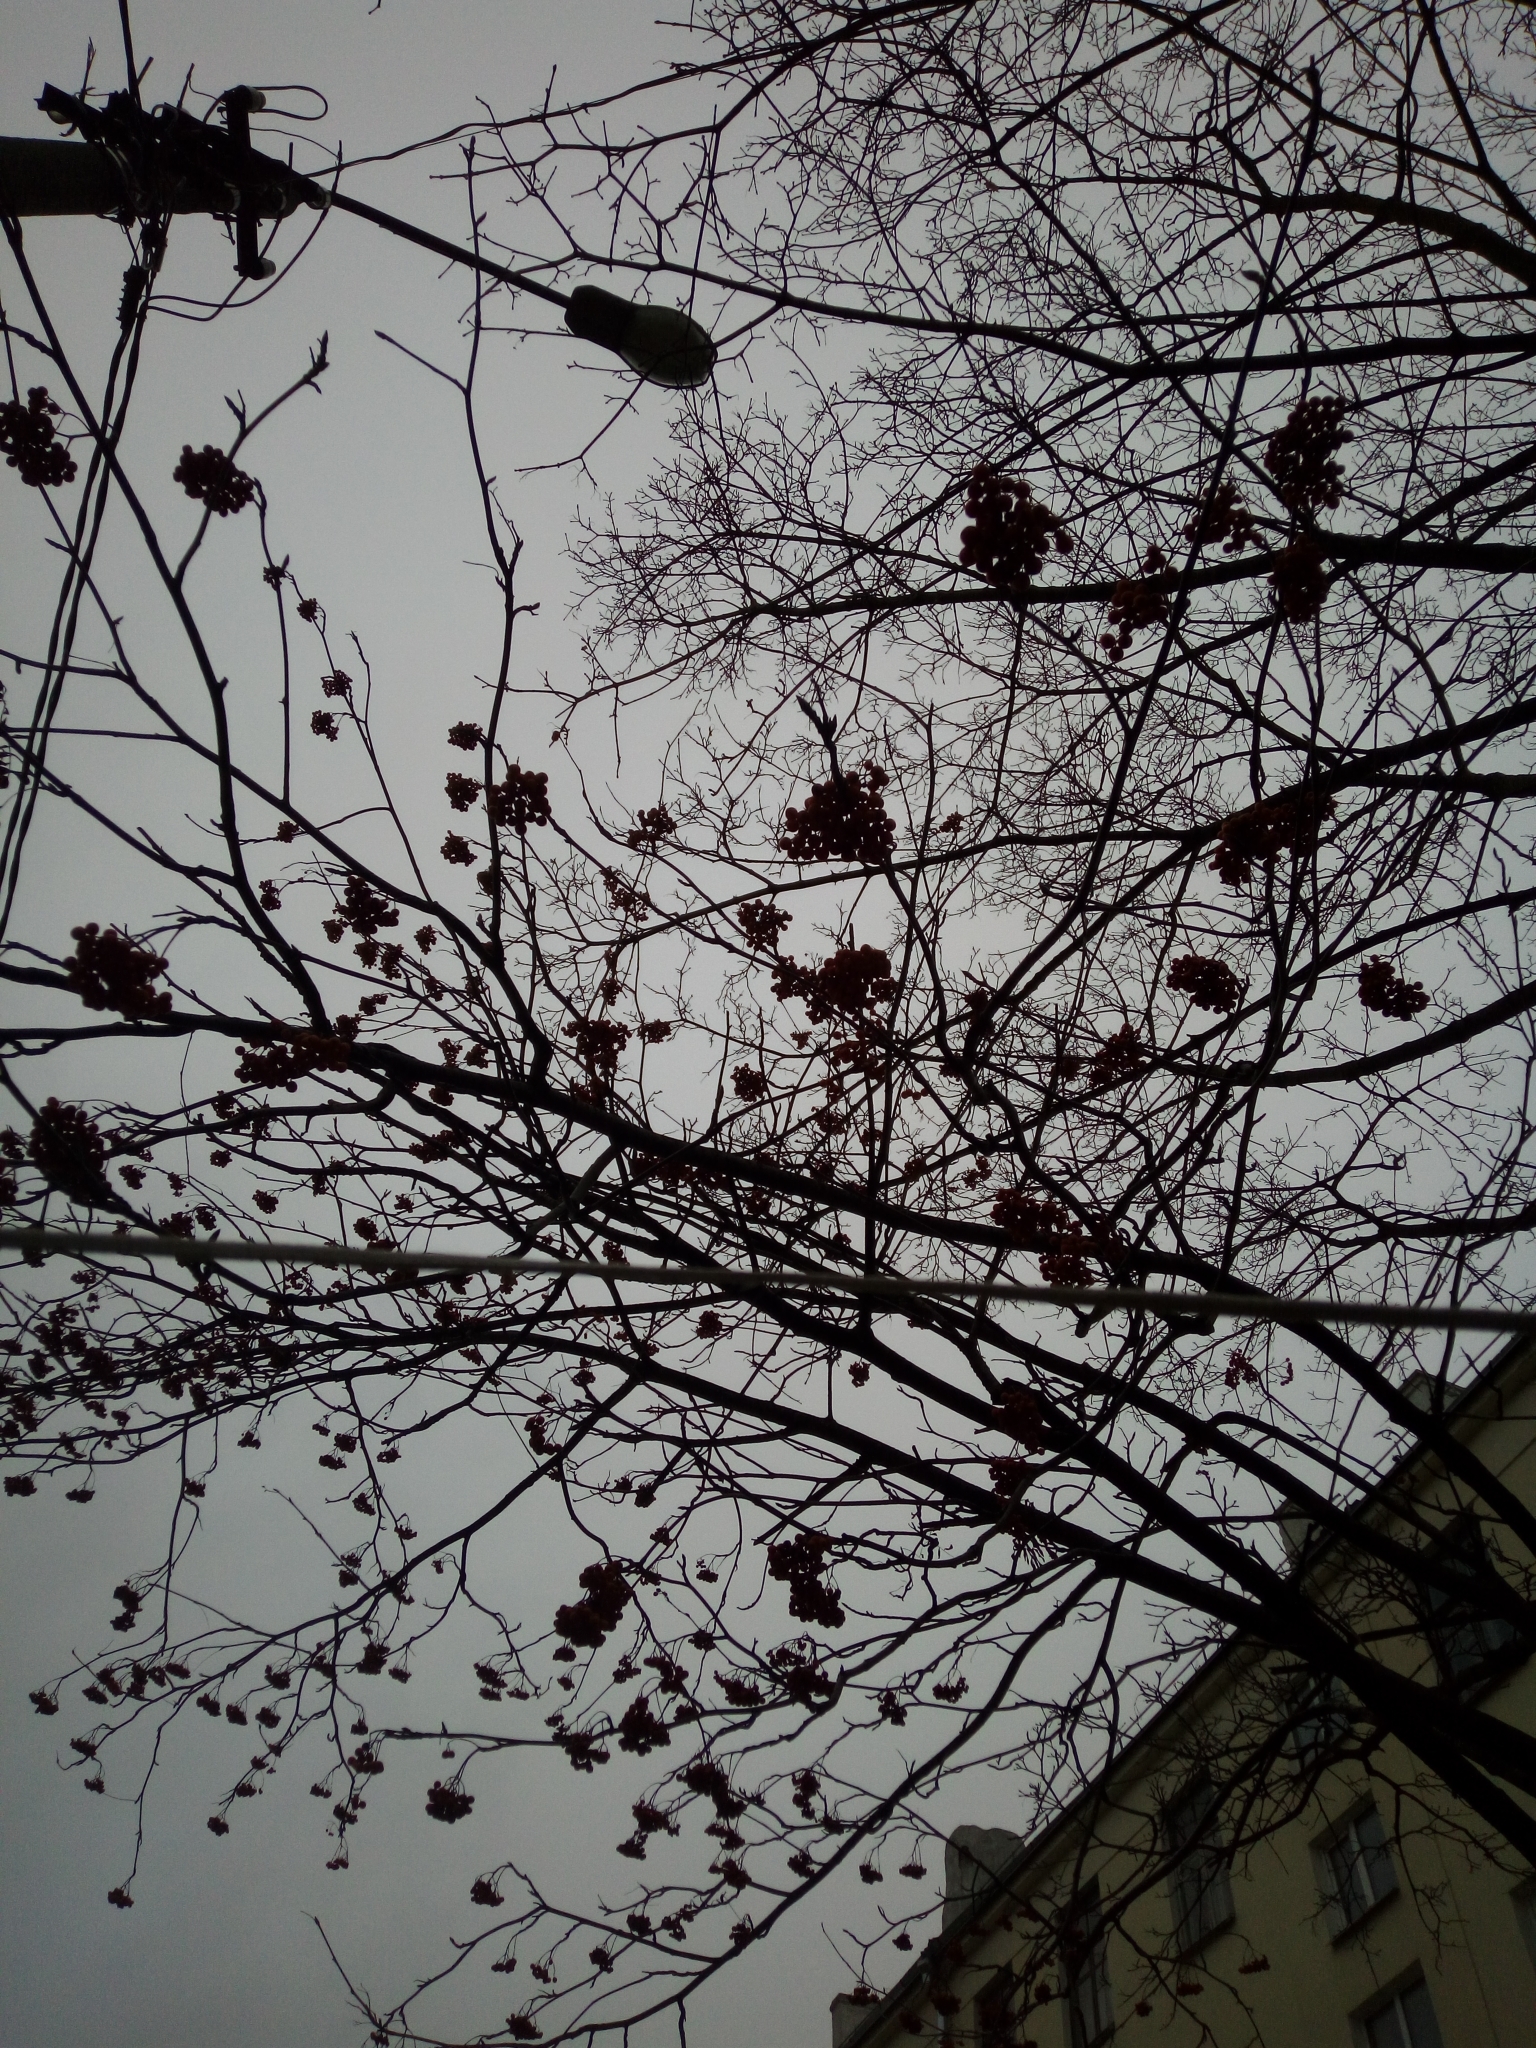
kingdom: Plantae
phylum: Tracheophyta
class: Magnoliopsida
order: Rosales
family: Rosaceae
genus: Sorbus
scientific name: Sorbus aucuparia
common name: Rowan
